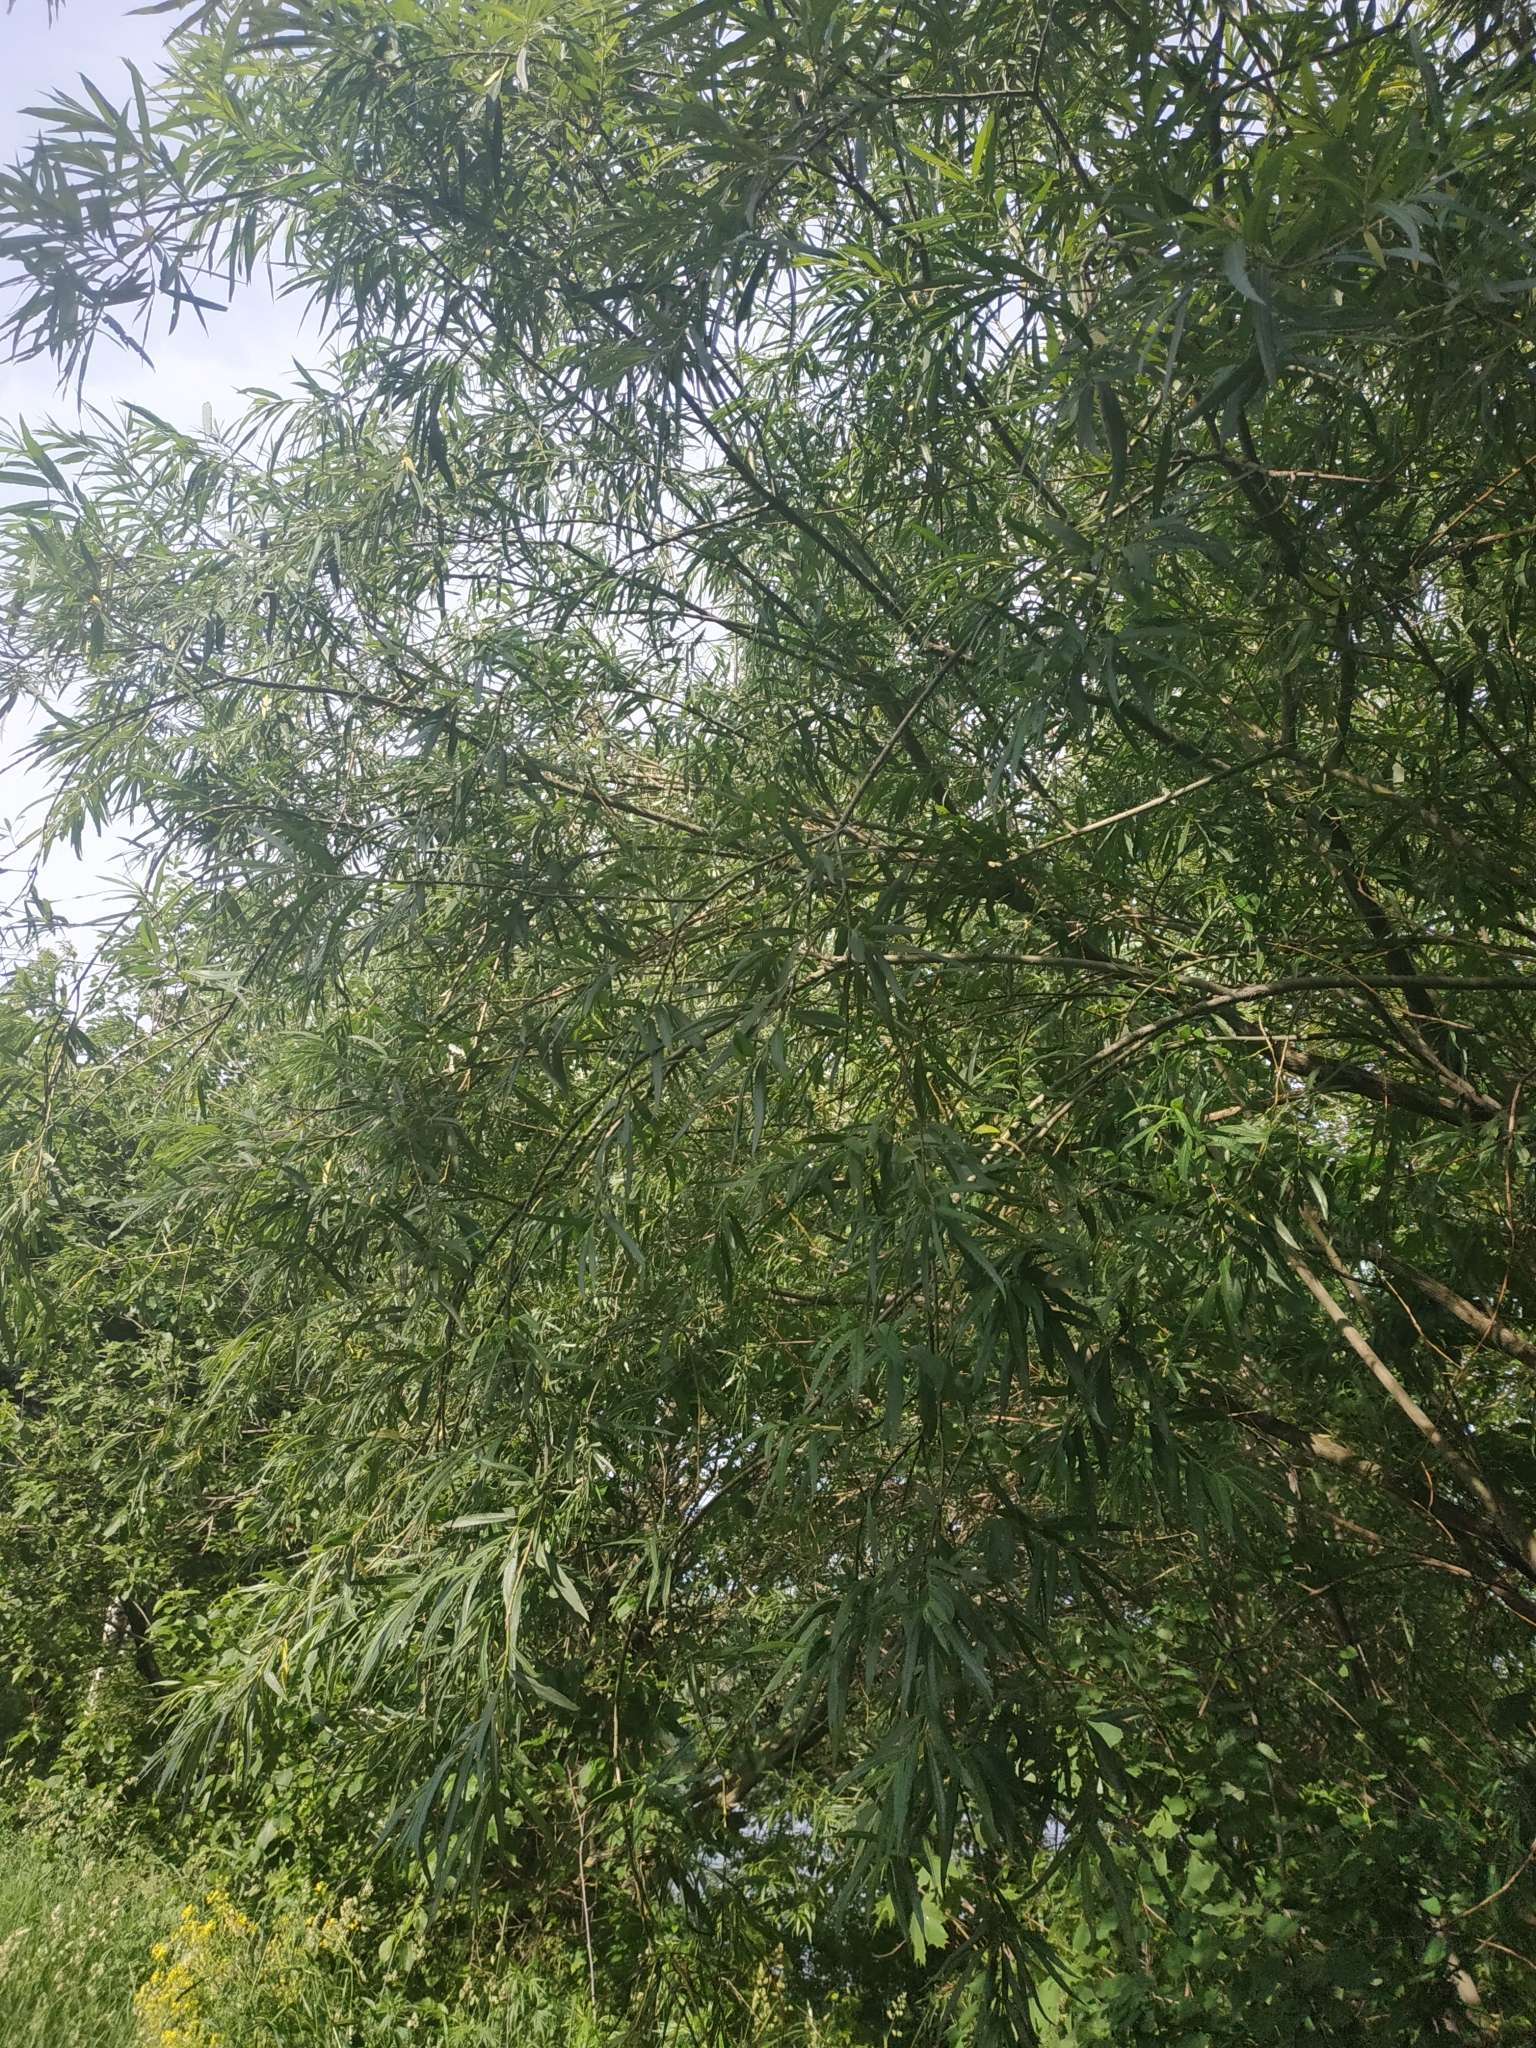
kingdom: Plantae
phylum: Tracheophyta
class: Magnoliopsida
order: Malpighiales
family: Salicaceae
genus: Salix
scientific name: Salix viminalis
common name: Osier
